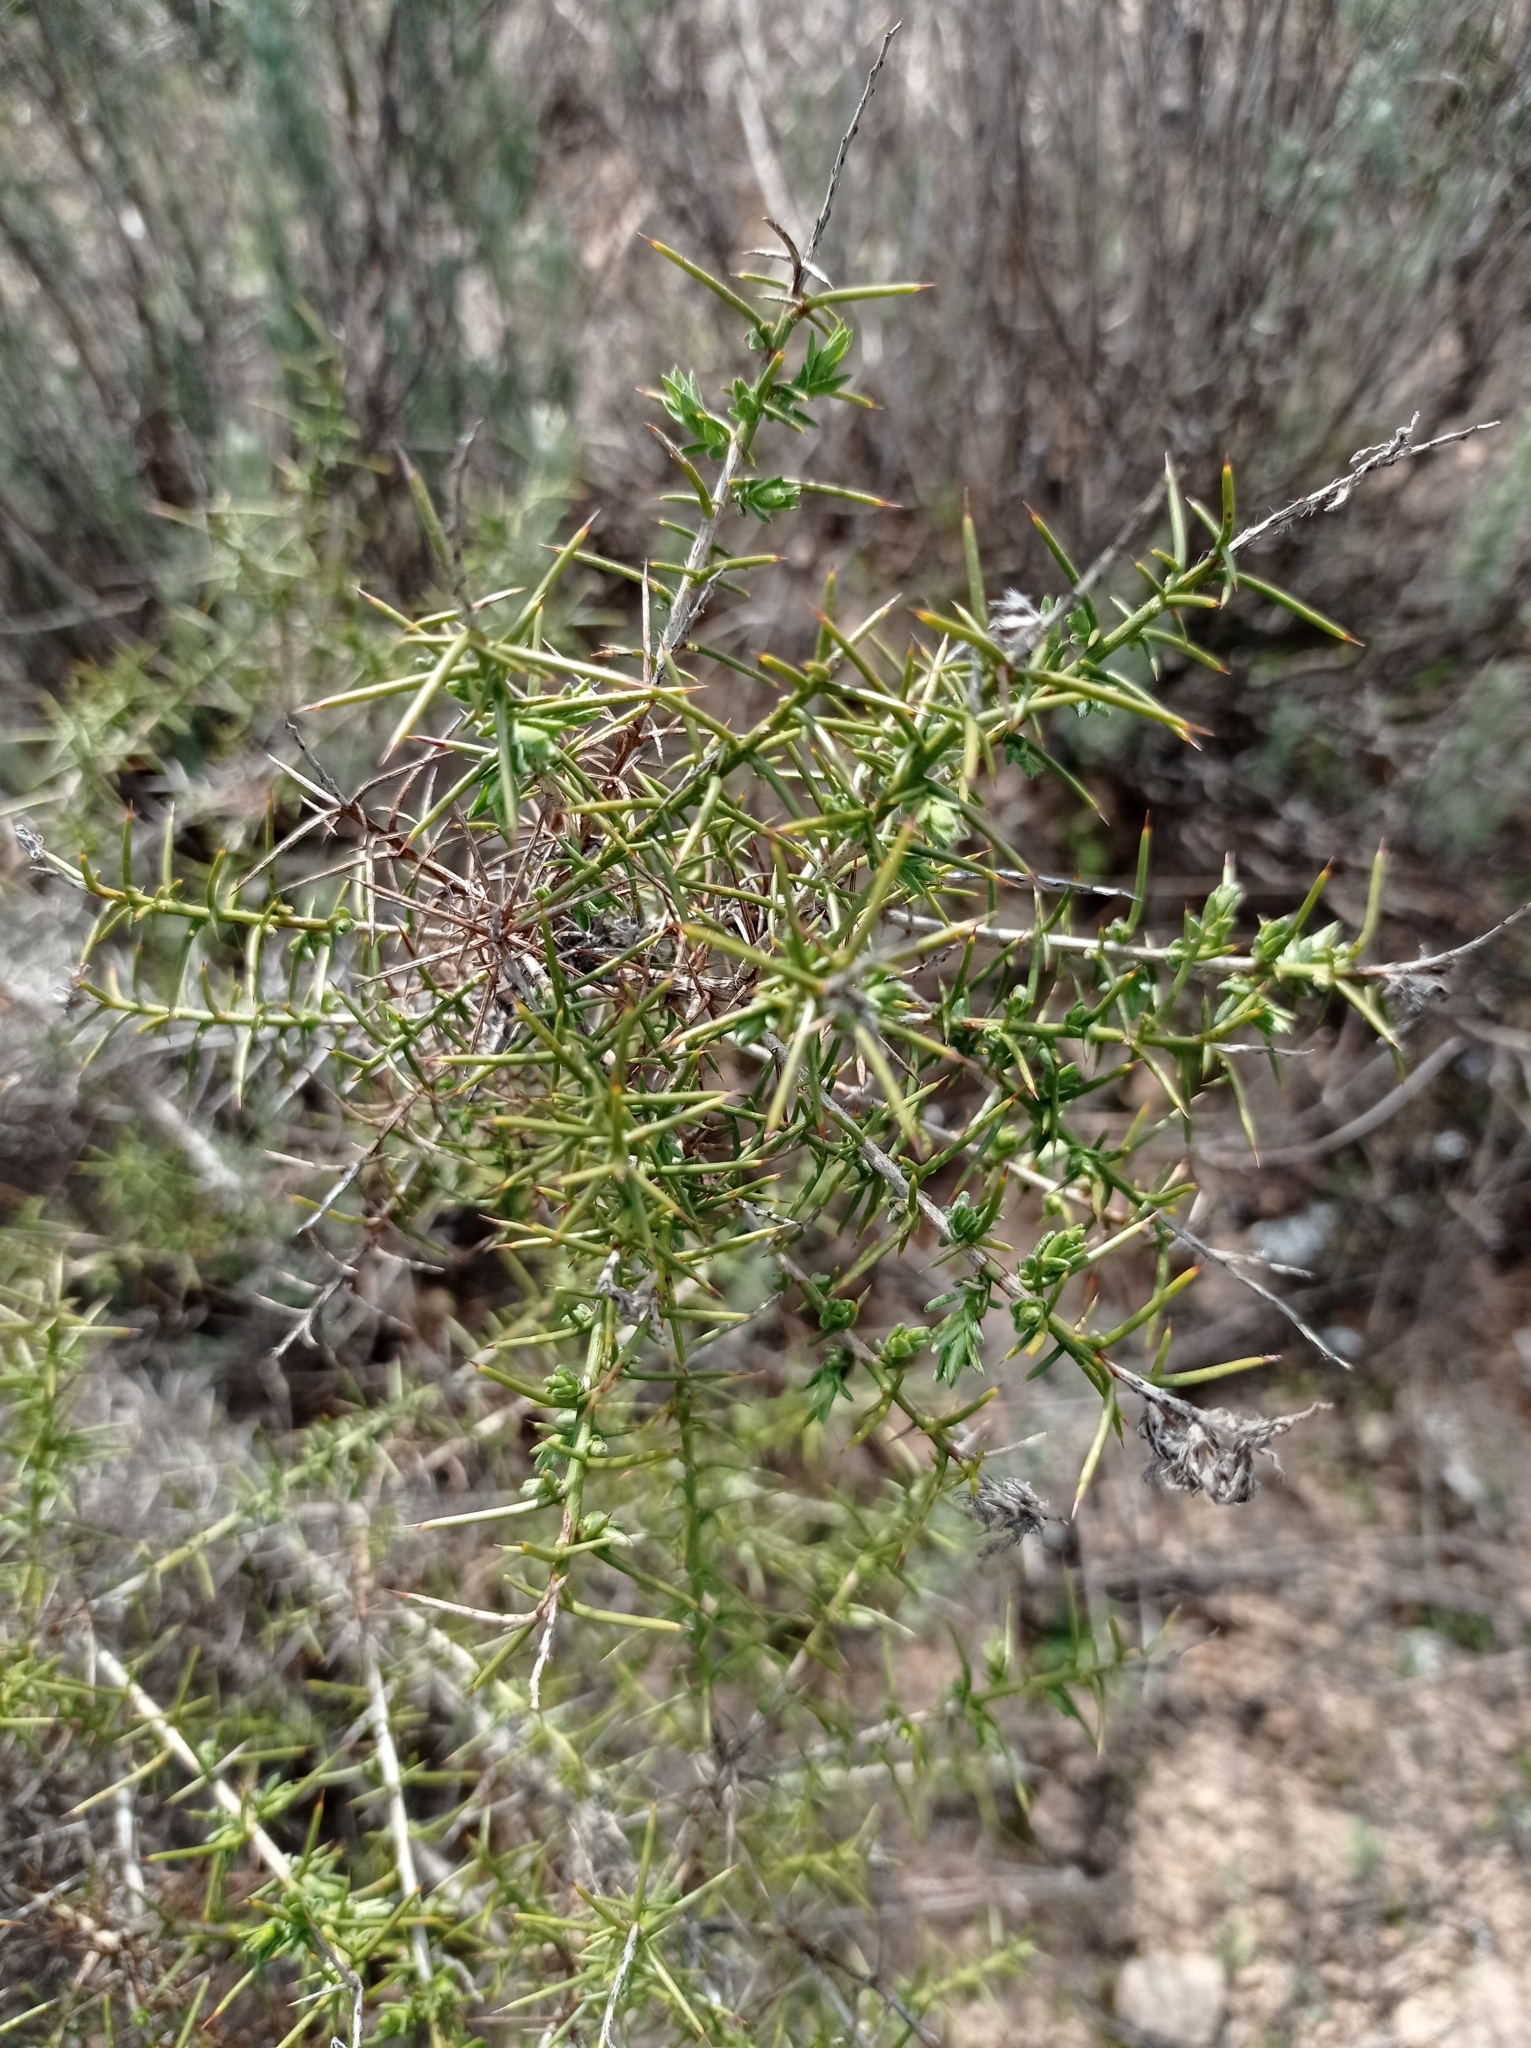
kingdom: Plantae
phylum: Tracheophyta
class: Magnoliopsida
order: Fabales
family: Fabaceae
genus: Genista
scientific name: Genista hirsuta
